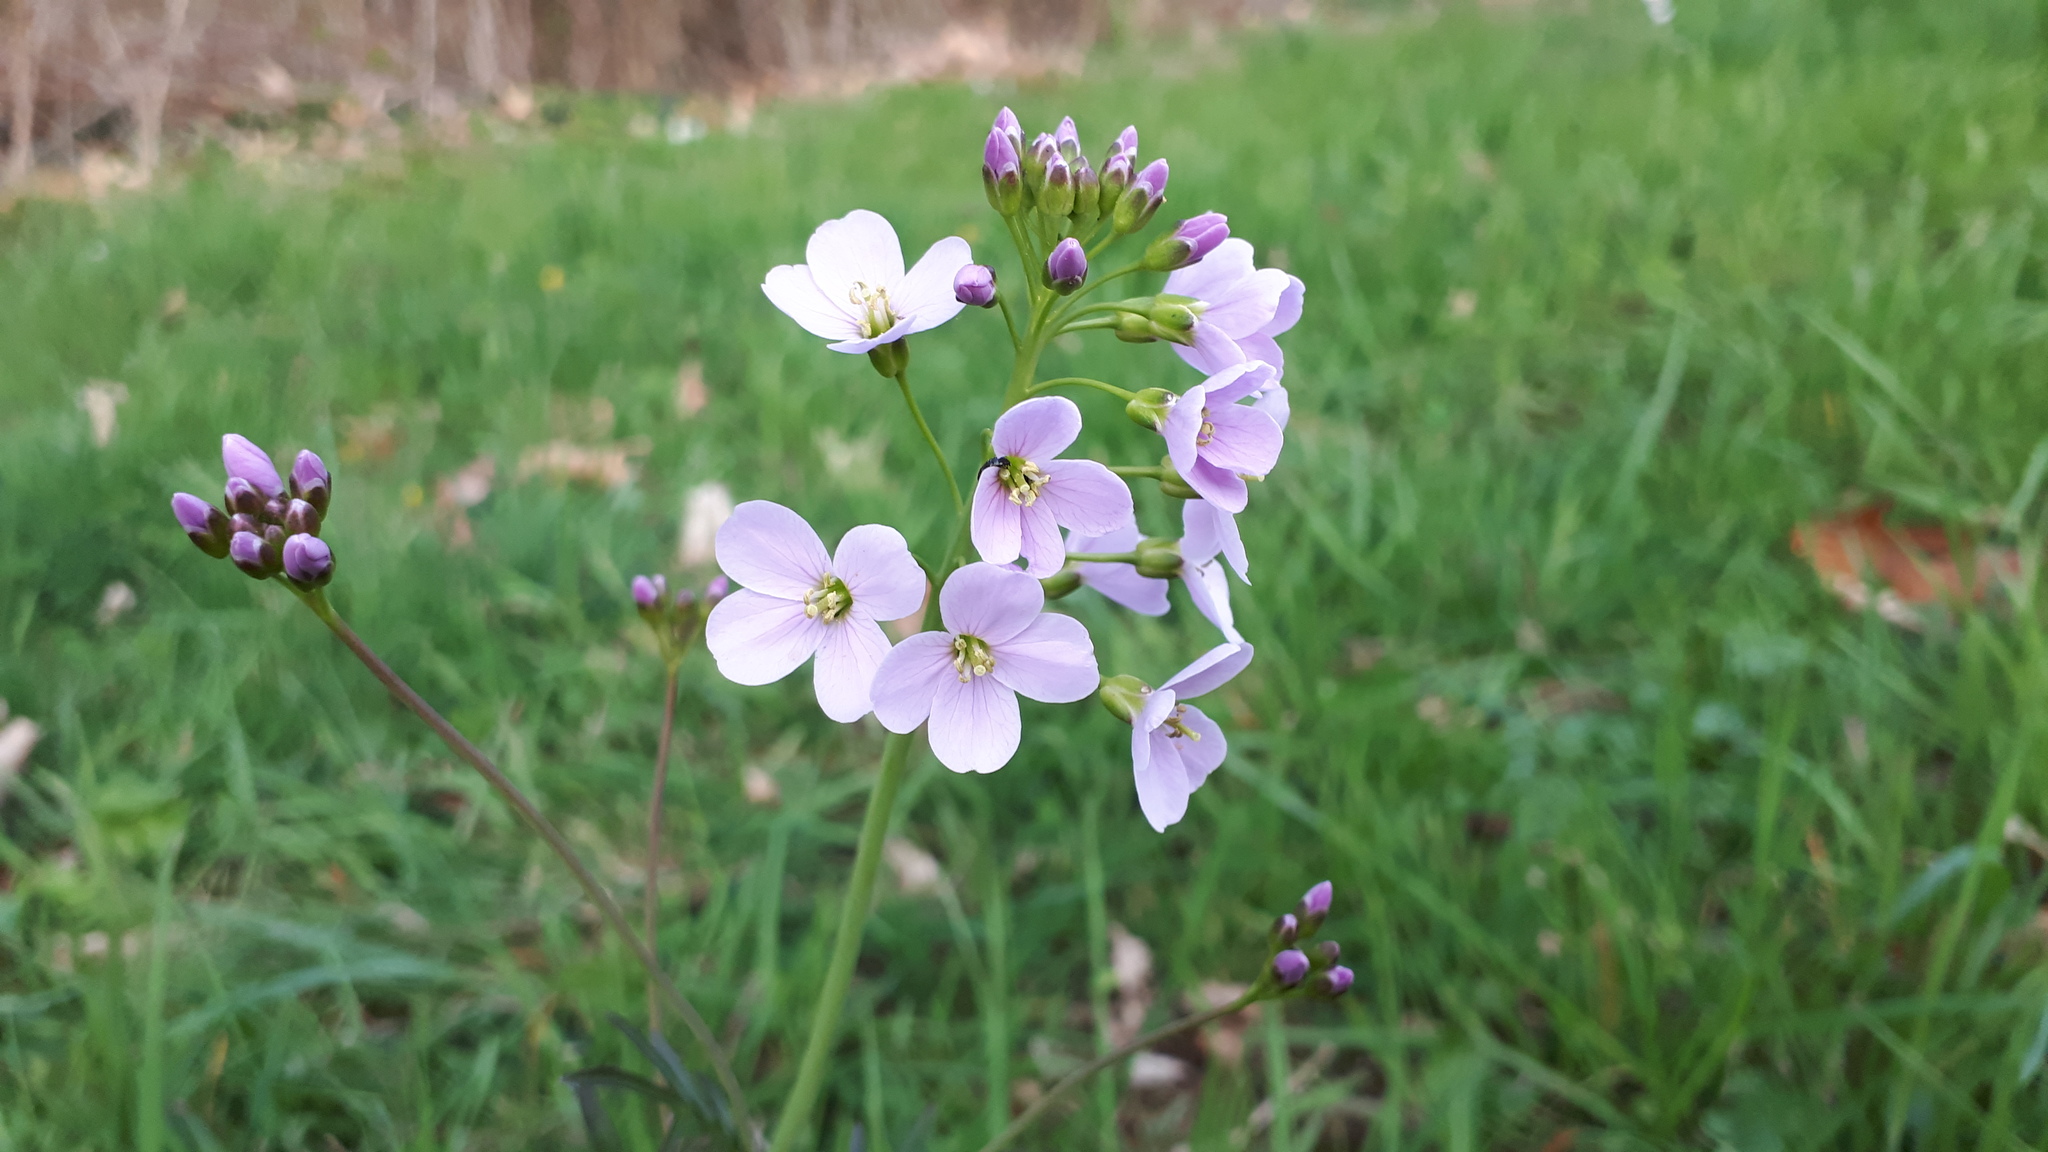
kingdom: Plantae
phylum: Tracheophyta
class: Magnoliopsida
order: Brassicales
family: Brassicaceae
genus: Cardamine
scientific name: Cardamine pratensis
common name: Cuckoo flower
